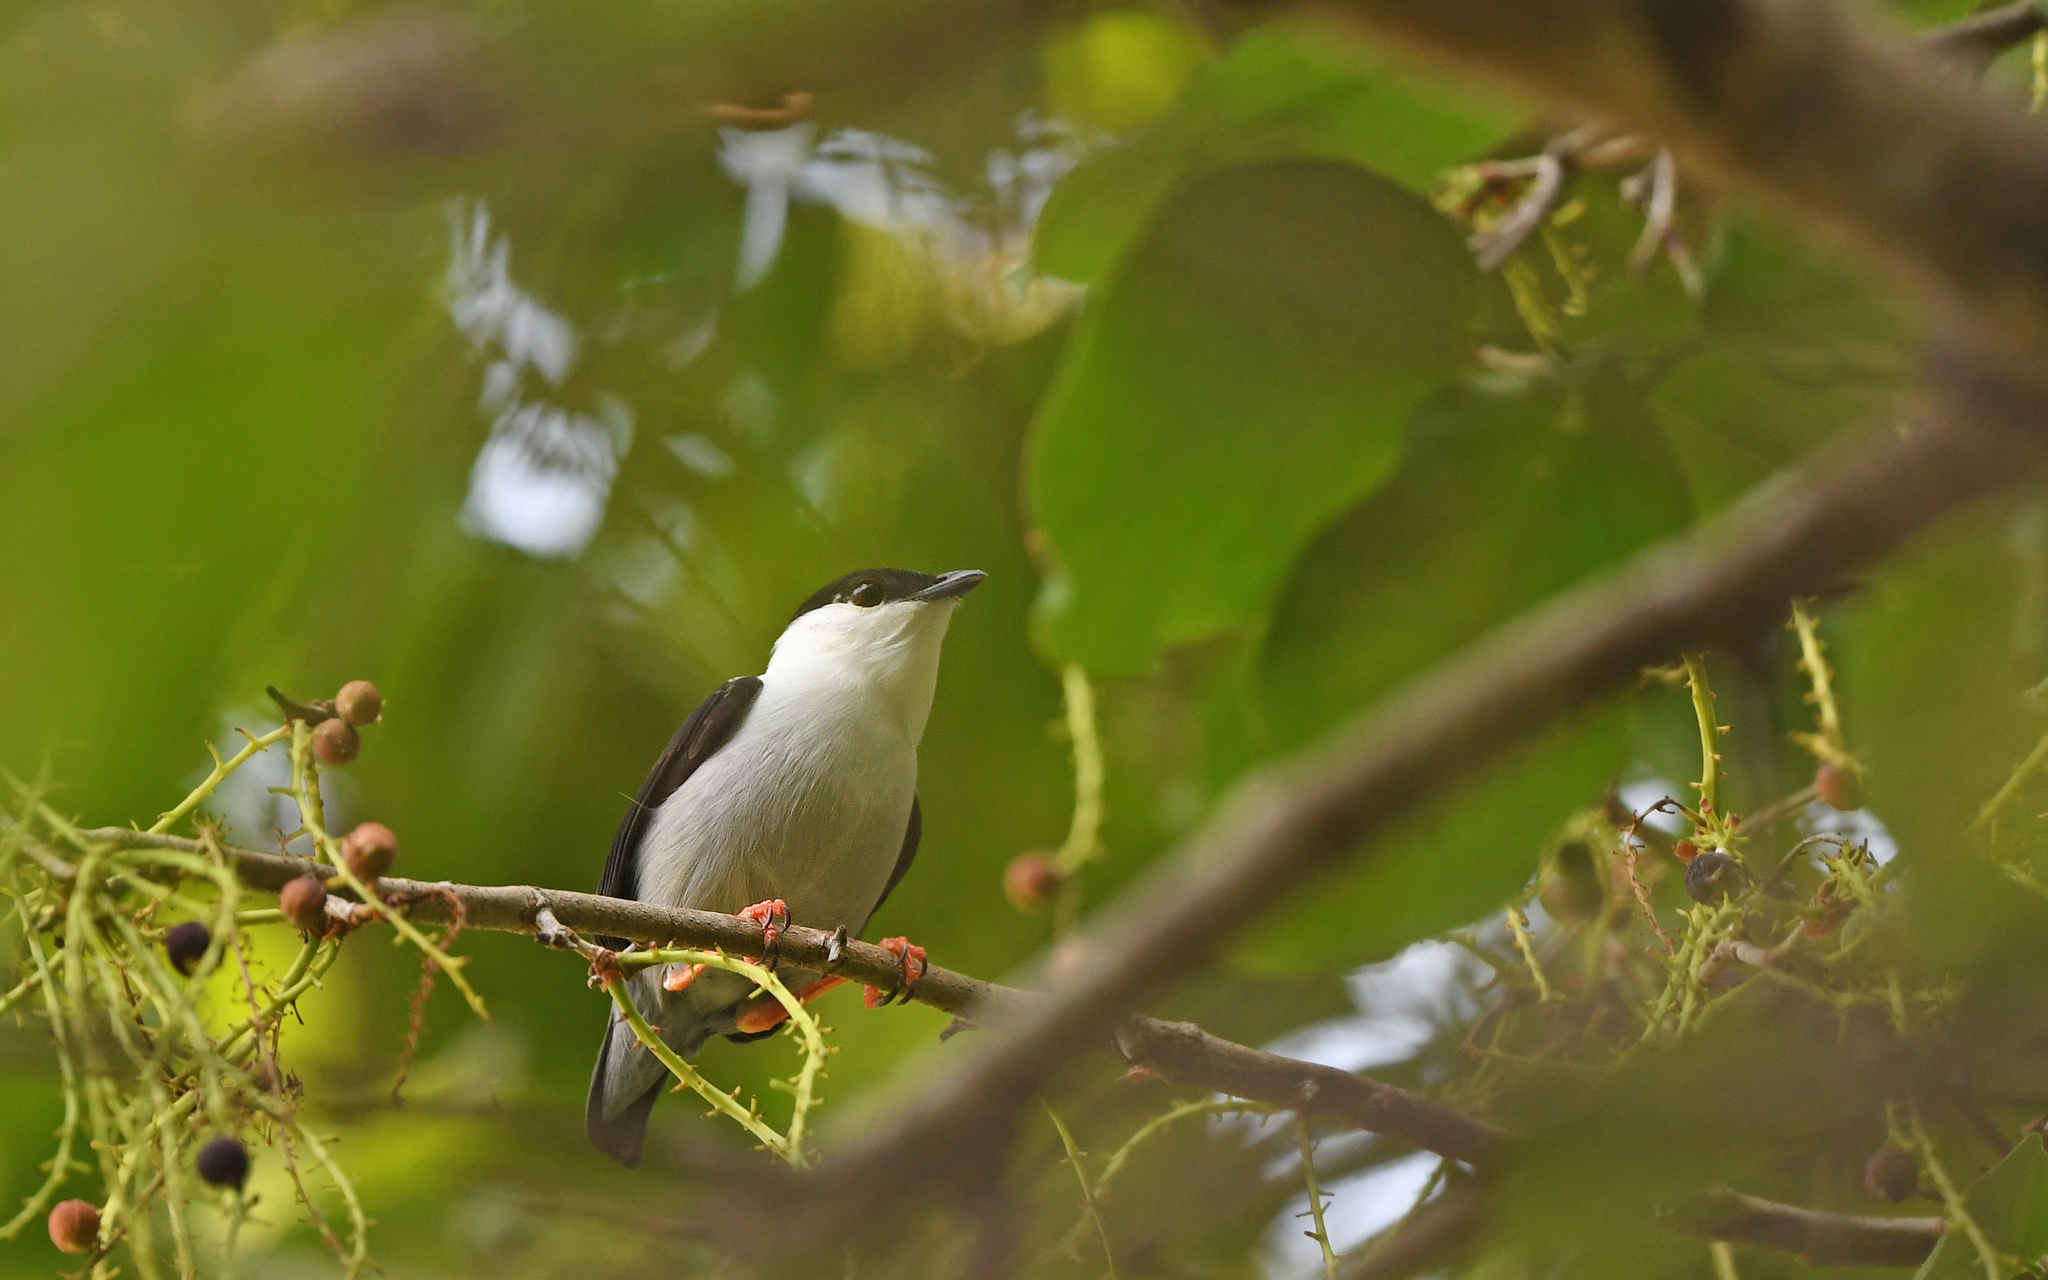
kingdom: Animalia
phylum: Chordata
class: Aves
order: Passeriformes
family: Pipridae
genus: Manacus
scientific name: Manacus manacus
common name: White-bearded manakin
